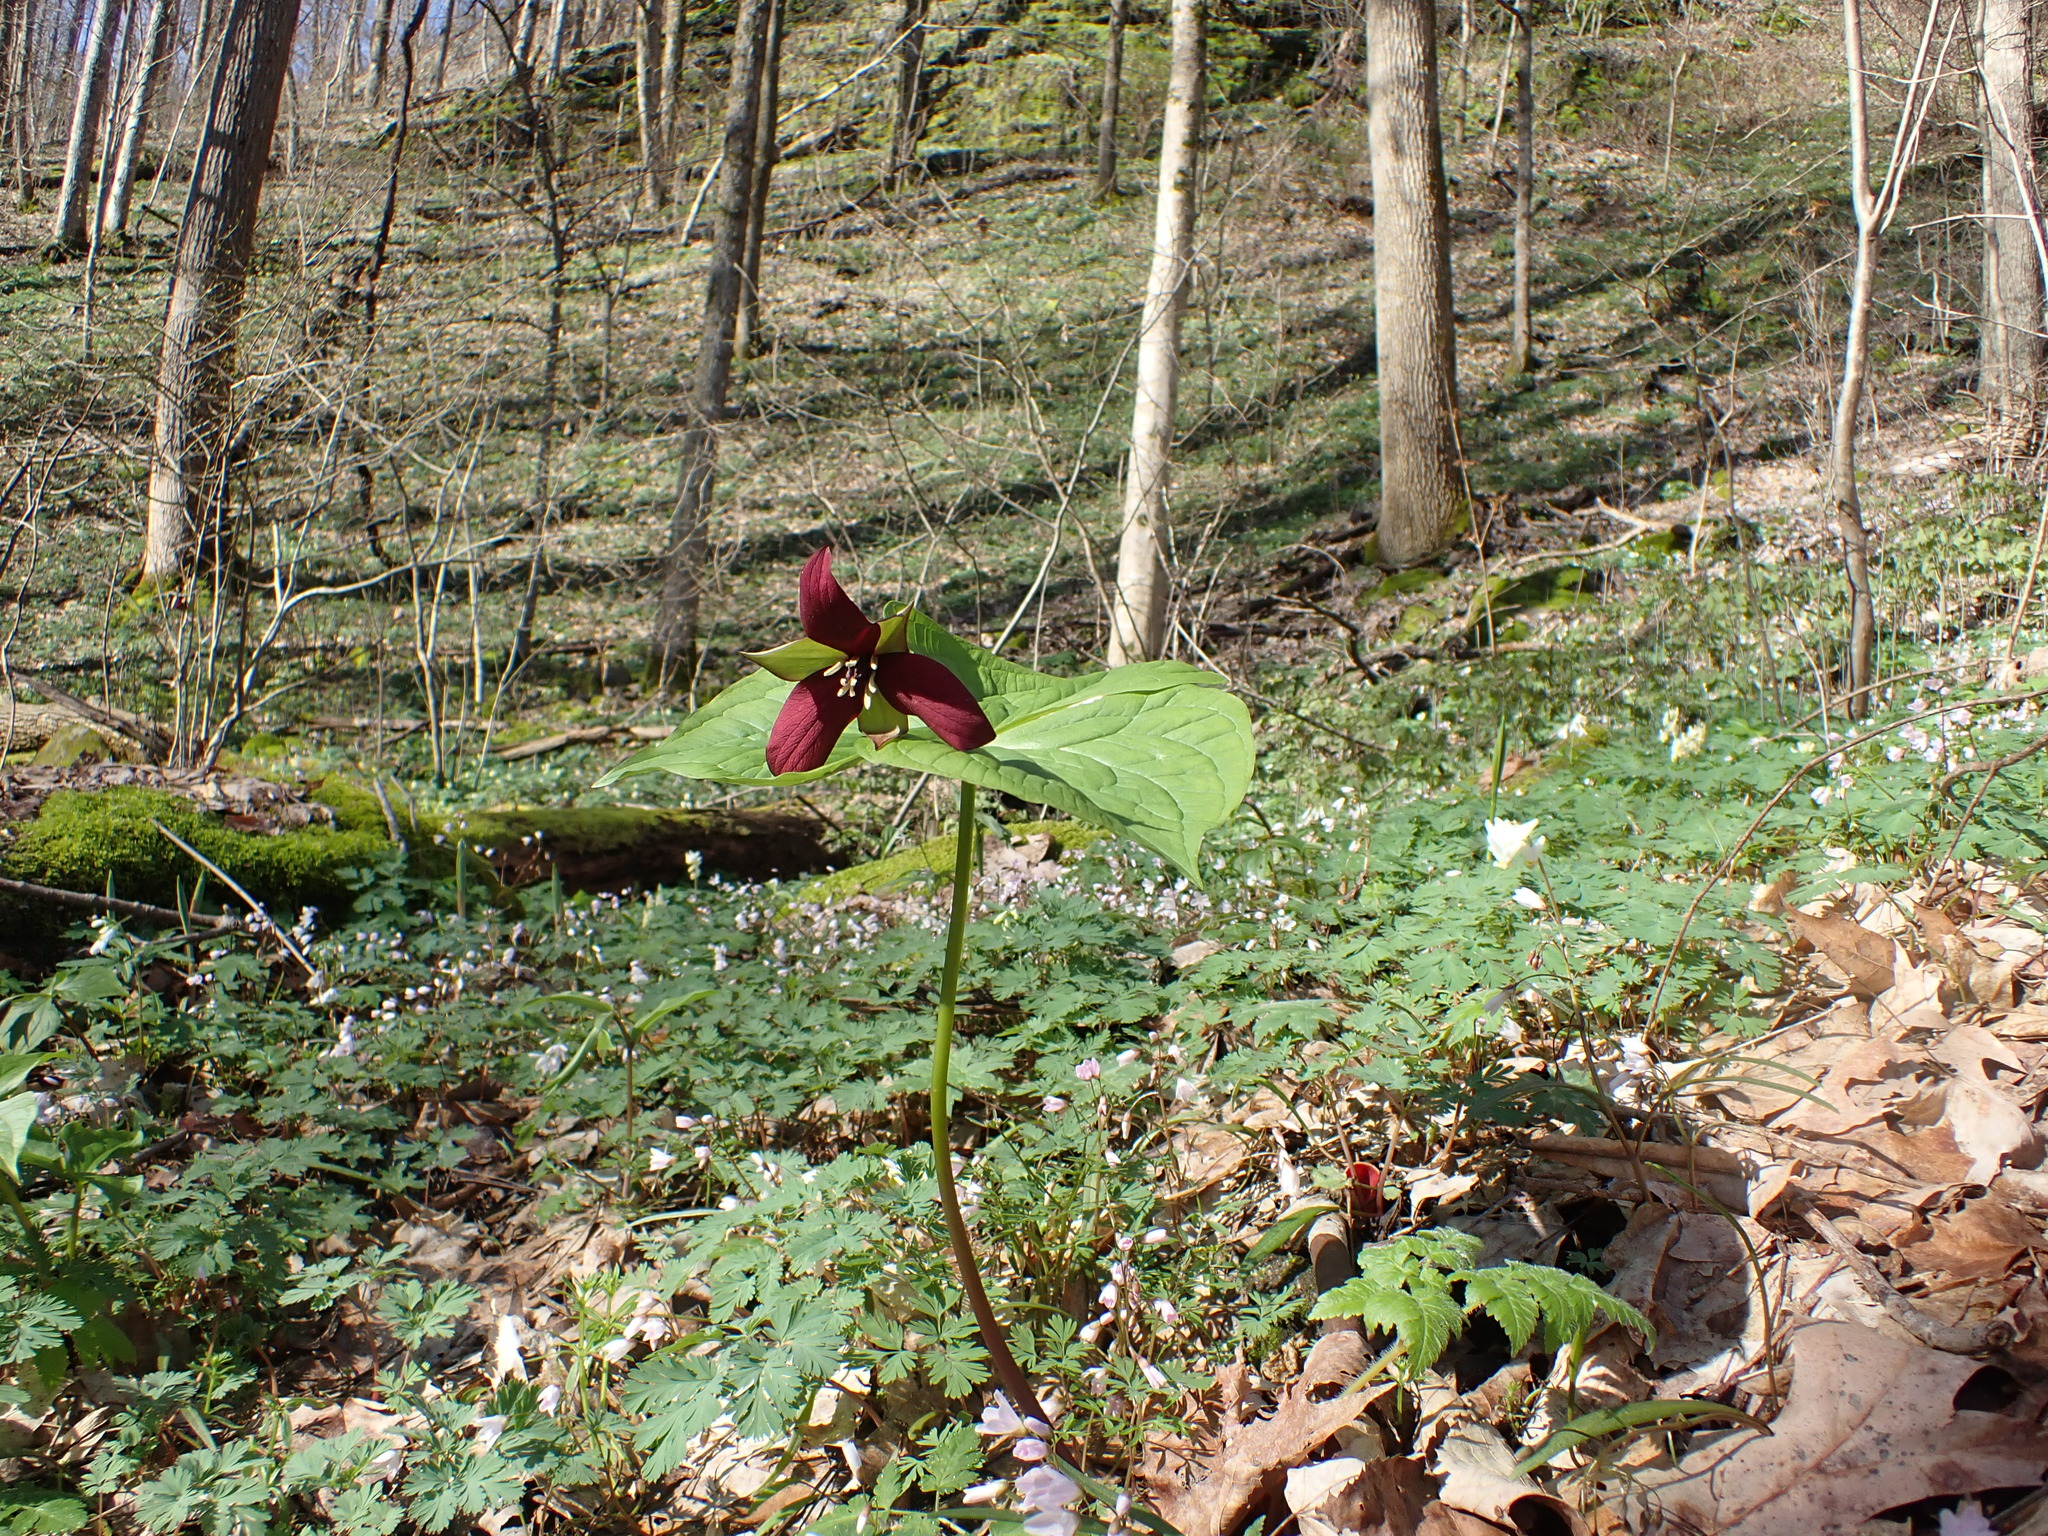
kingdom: Plantae
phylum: Tracheophyta
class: Liliopsida
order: Liliales
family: Melanthiaceae
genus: Trillium
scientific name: Trillium erectum
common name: Purple trillium
